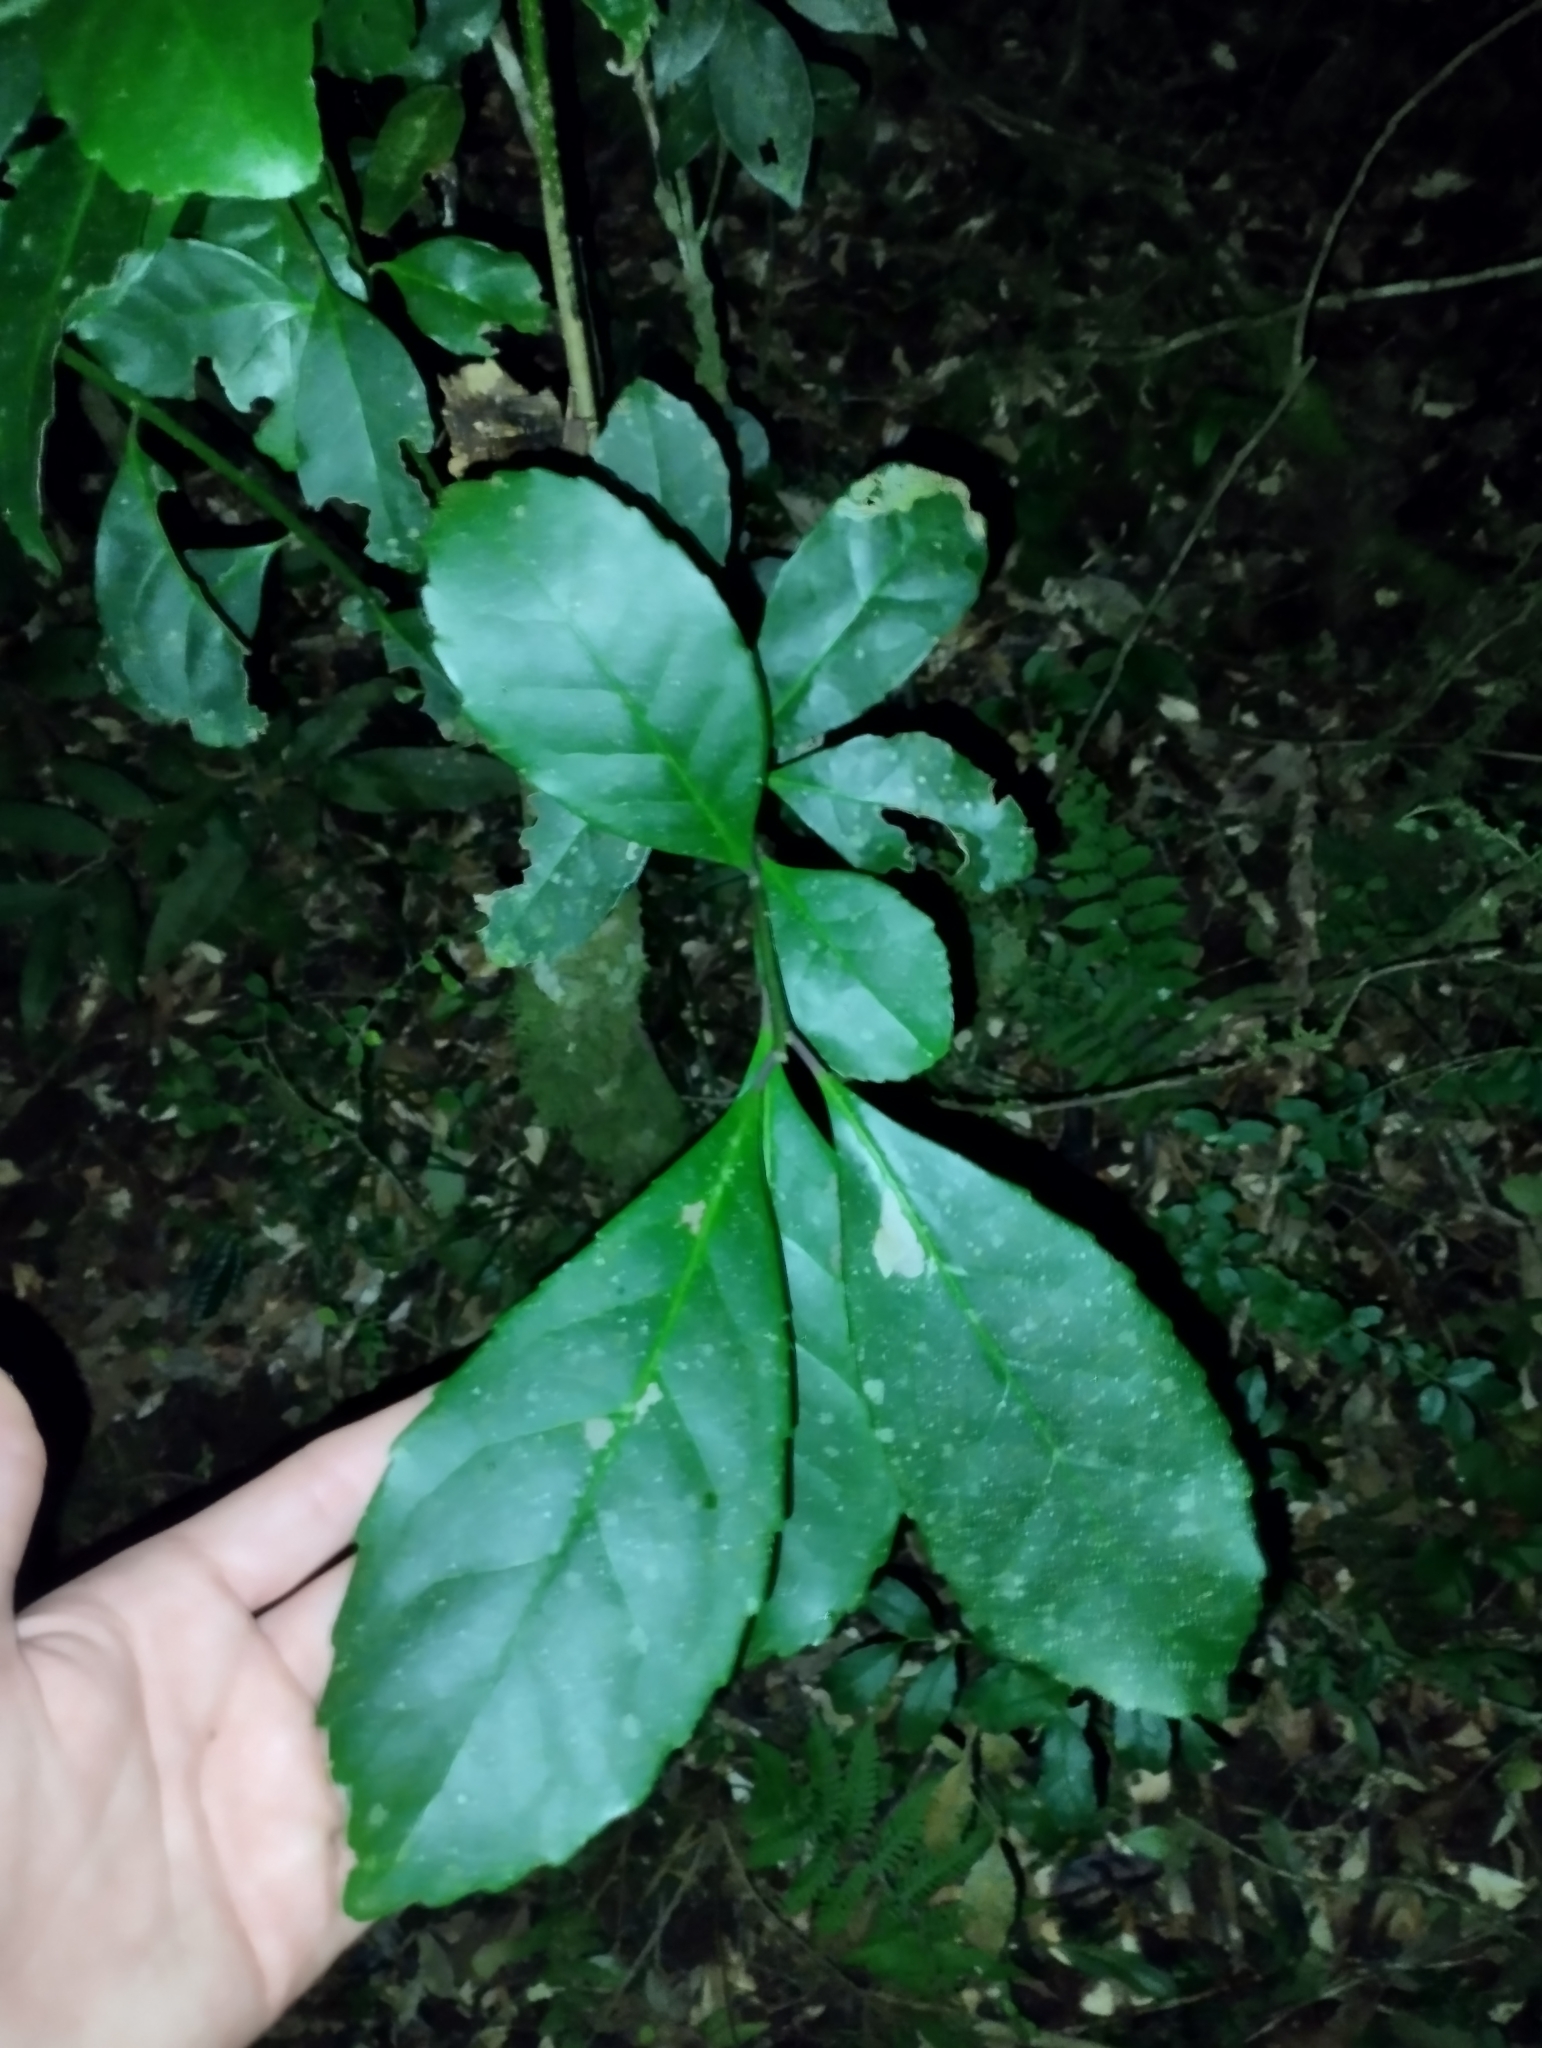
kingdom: Plantae
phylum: Tracheophyta
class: Magnoliopsida
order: Aquifoliales
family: Aquifoliaceae
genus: Ilex
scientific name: Ilex paraguariensis
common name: Paraguay tea
